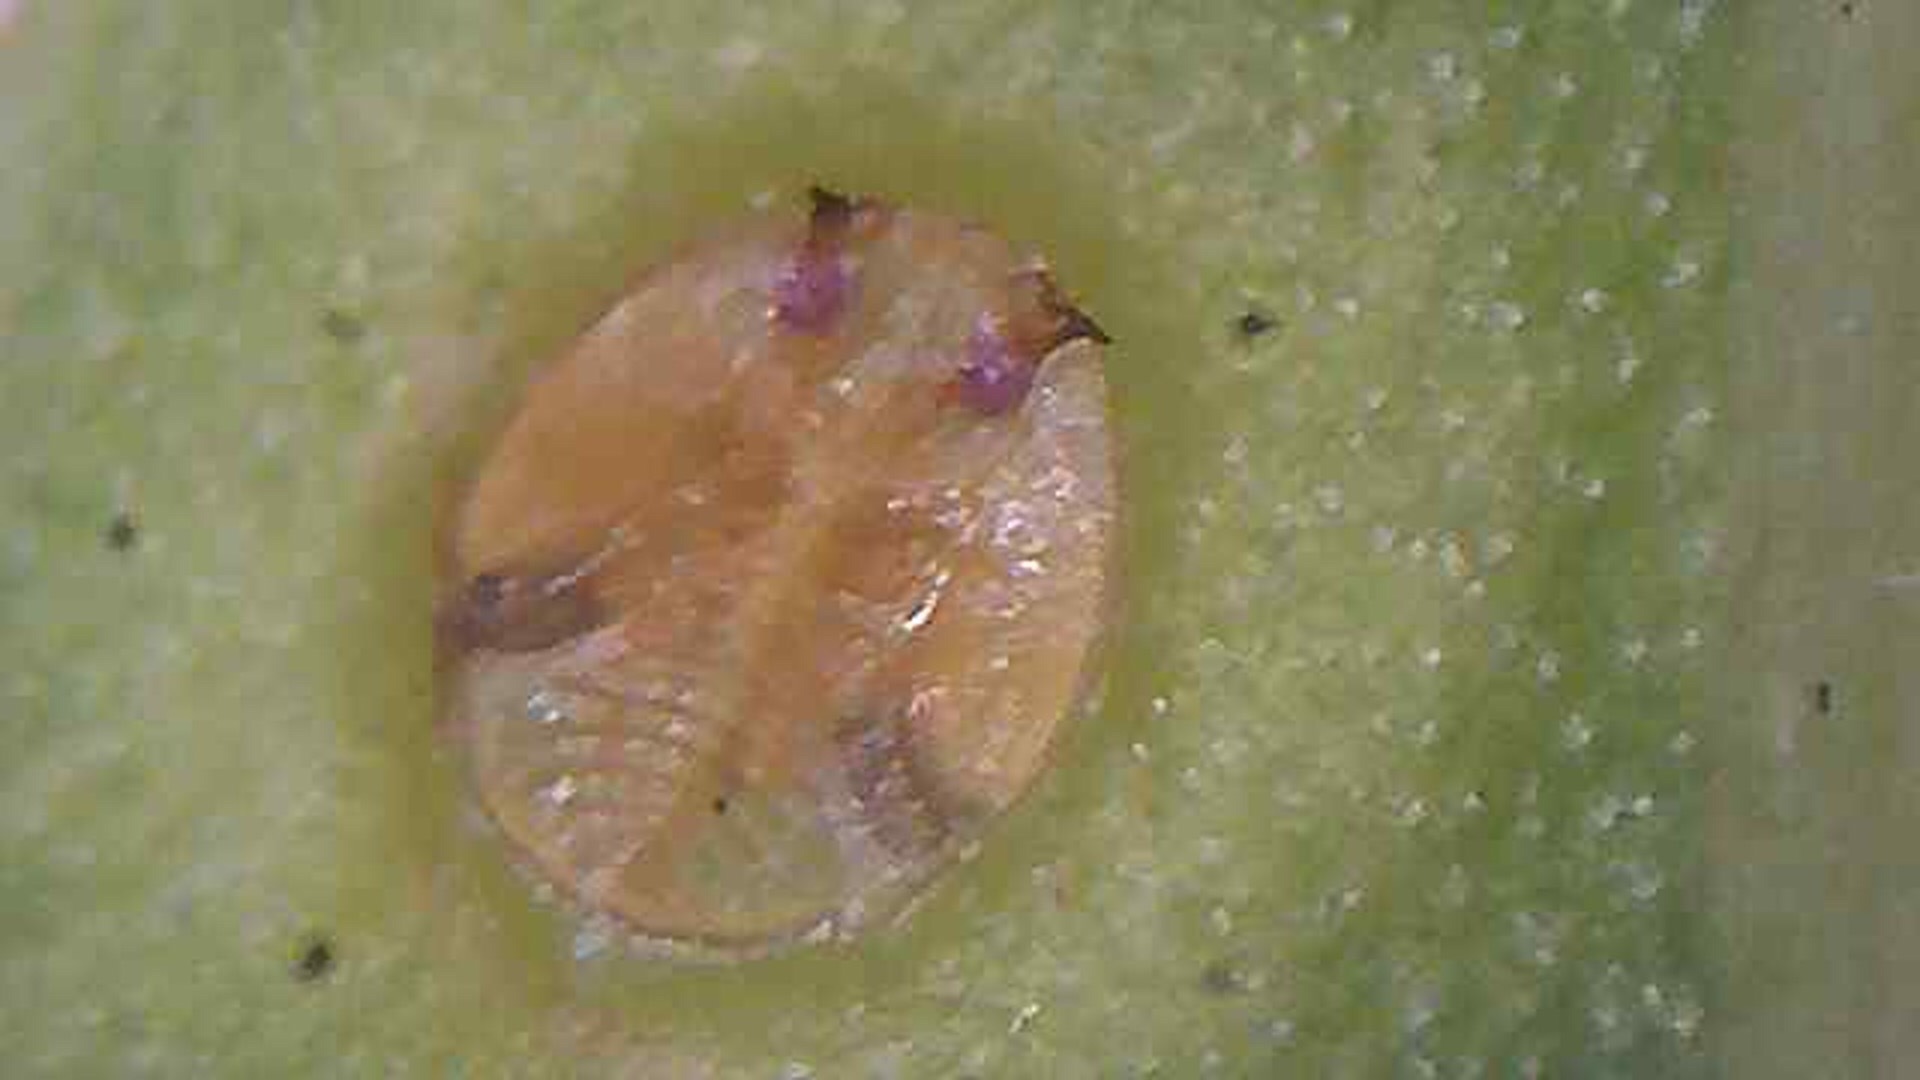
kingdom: Animalia
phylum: Arthropoda
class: Insecta
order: Hemiptera
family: Calophyidae
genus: Calophya
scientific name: Calophya schini
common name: Pepper tree psyllid
